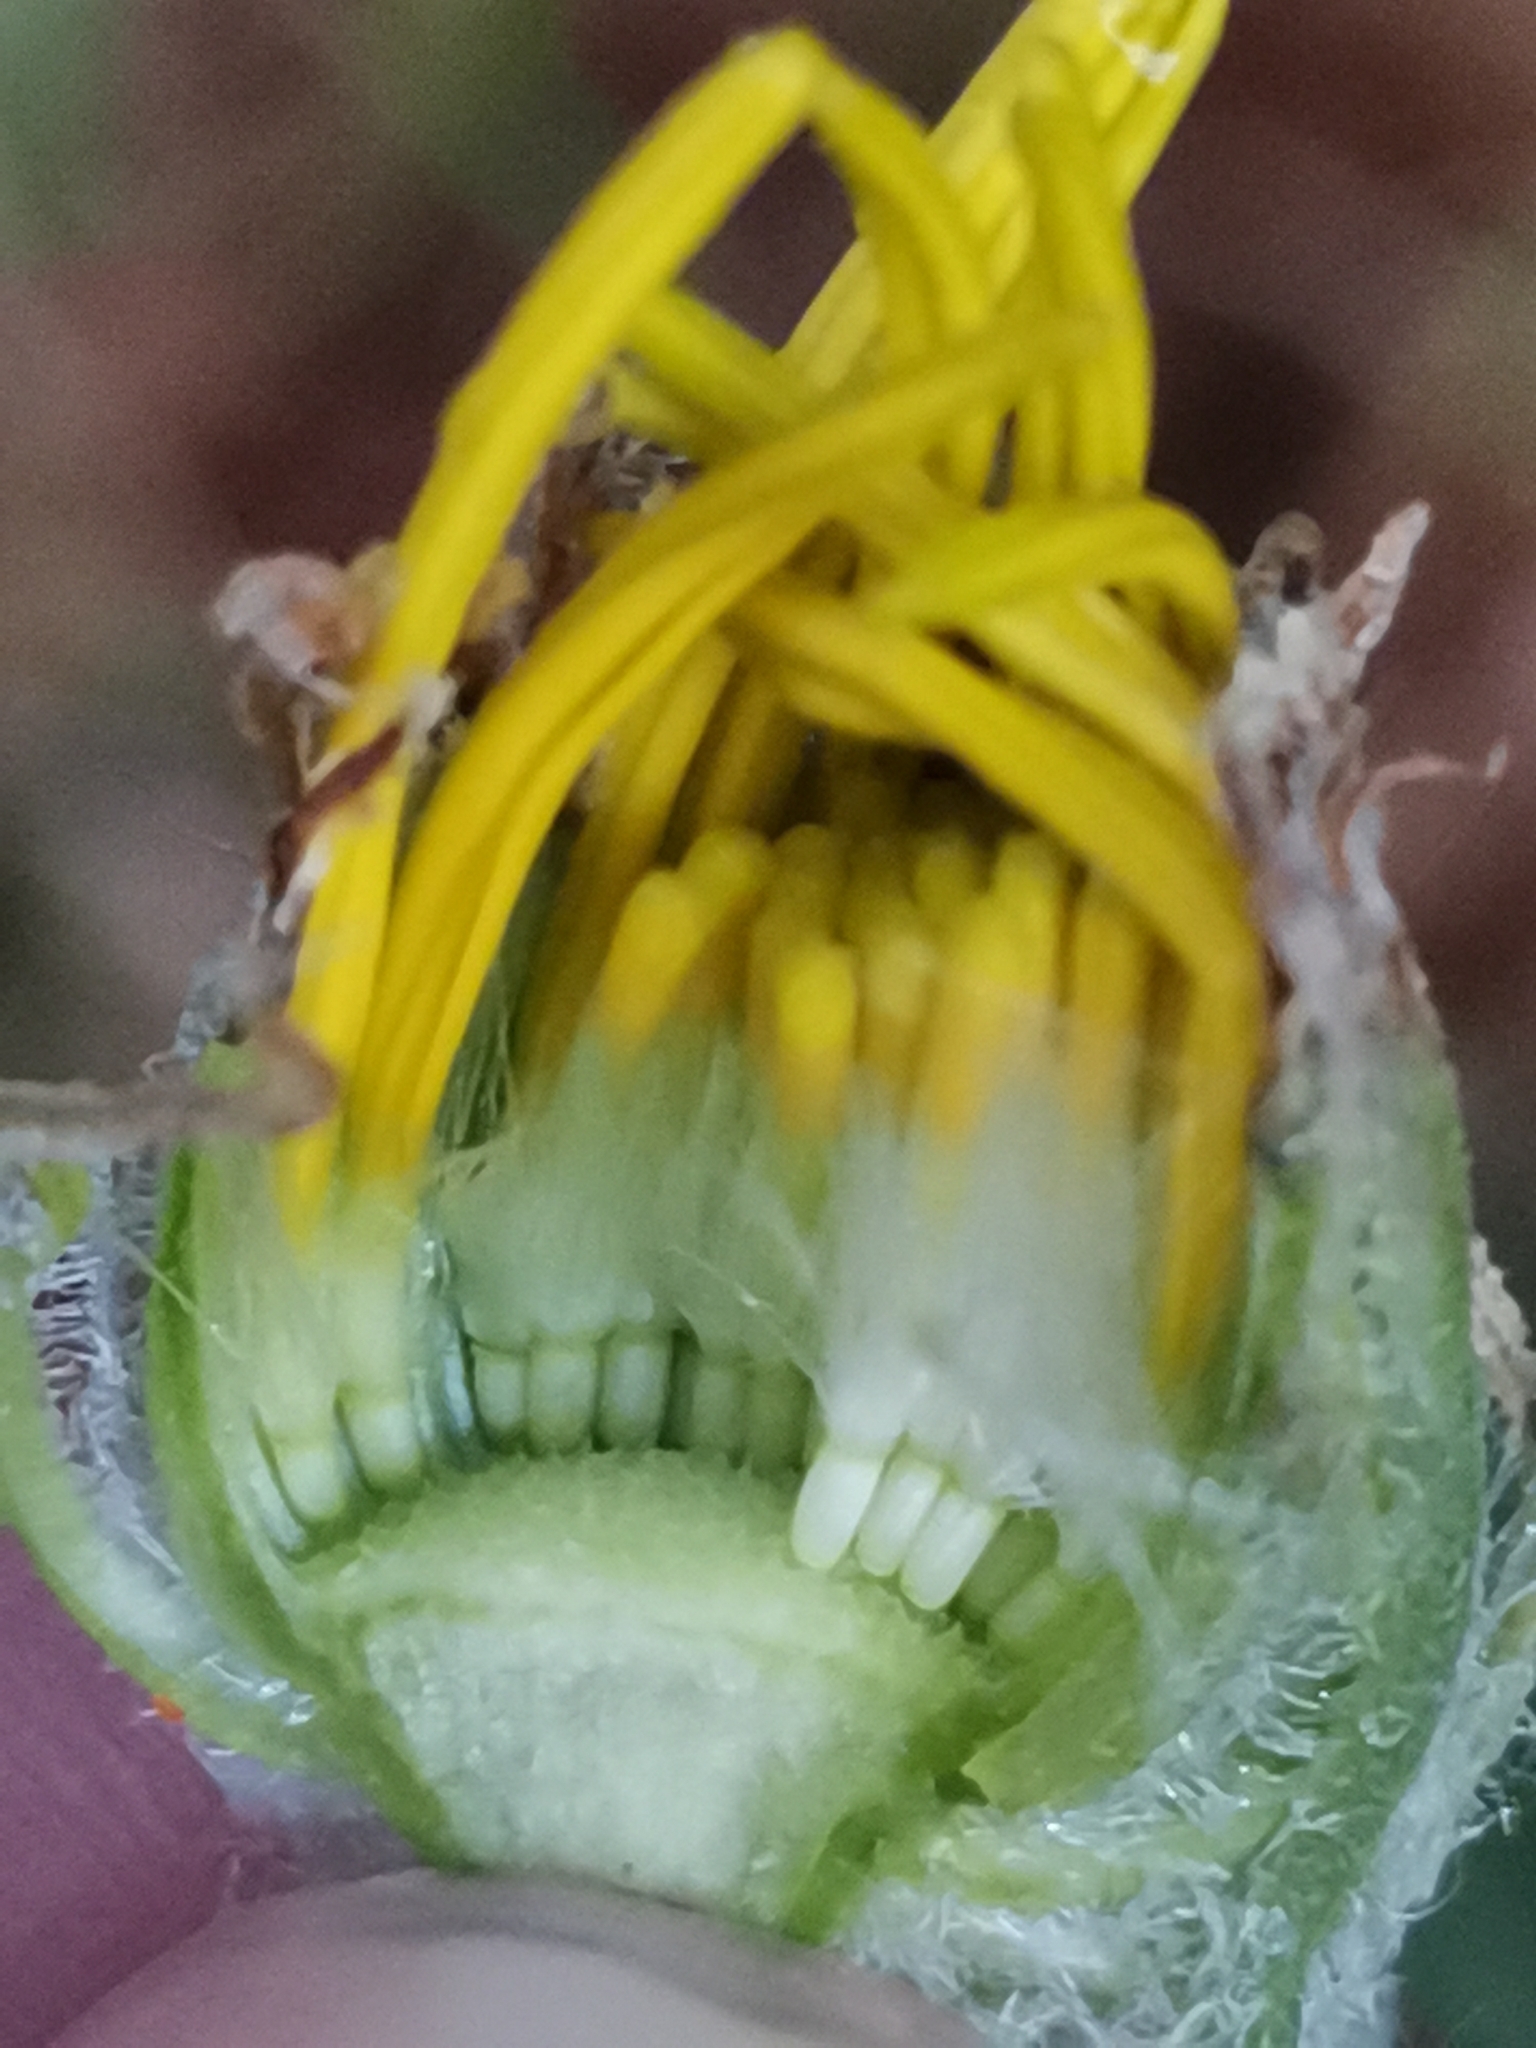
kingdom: Plantae
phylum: Tracheophyta
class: Magnoliopsida
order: Asterales
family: Asteraceae
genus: Senecio
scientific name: Senecio scopolii
